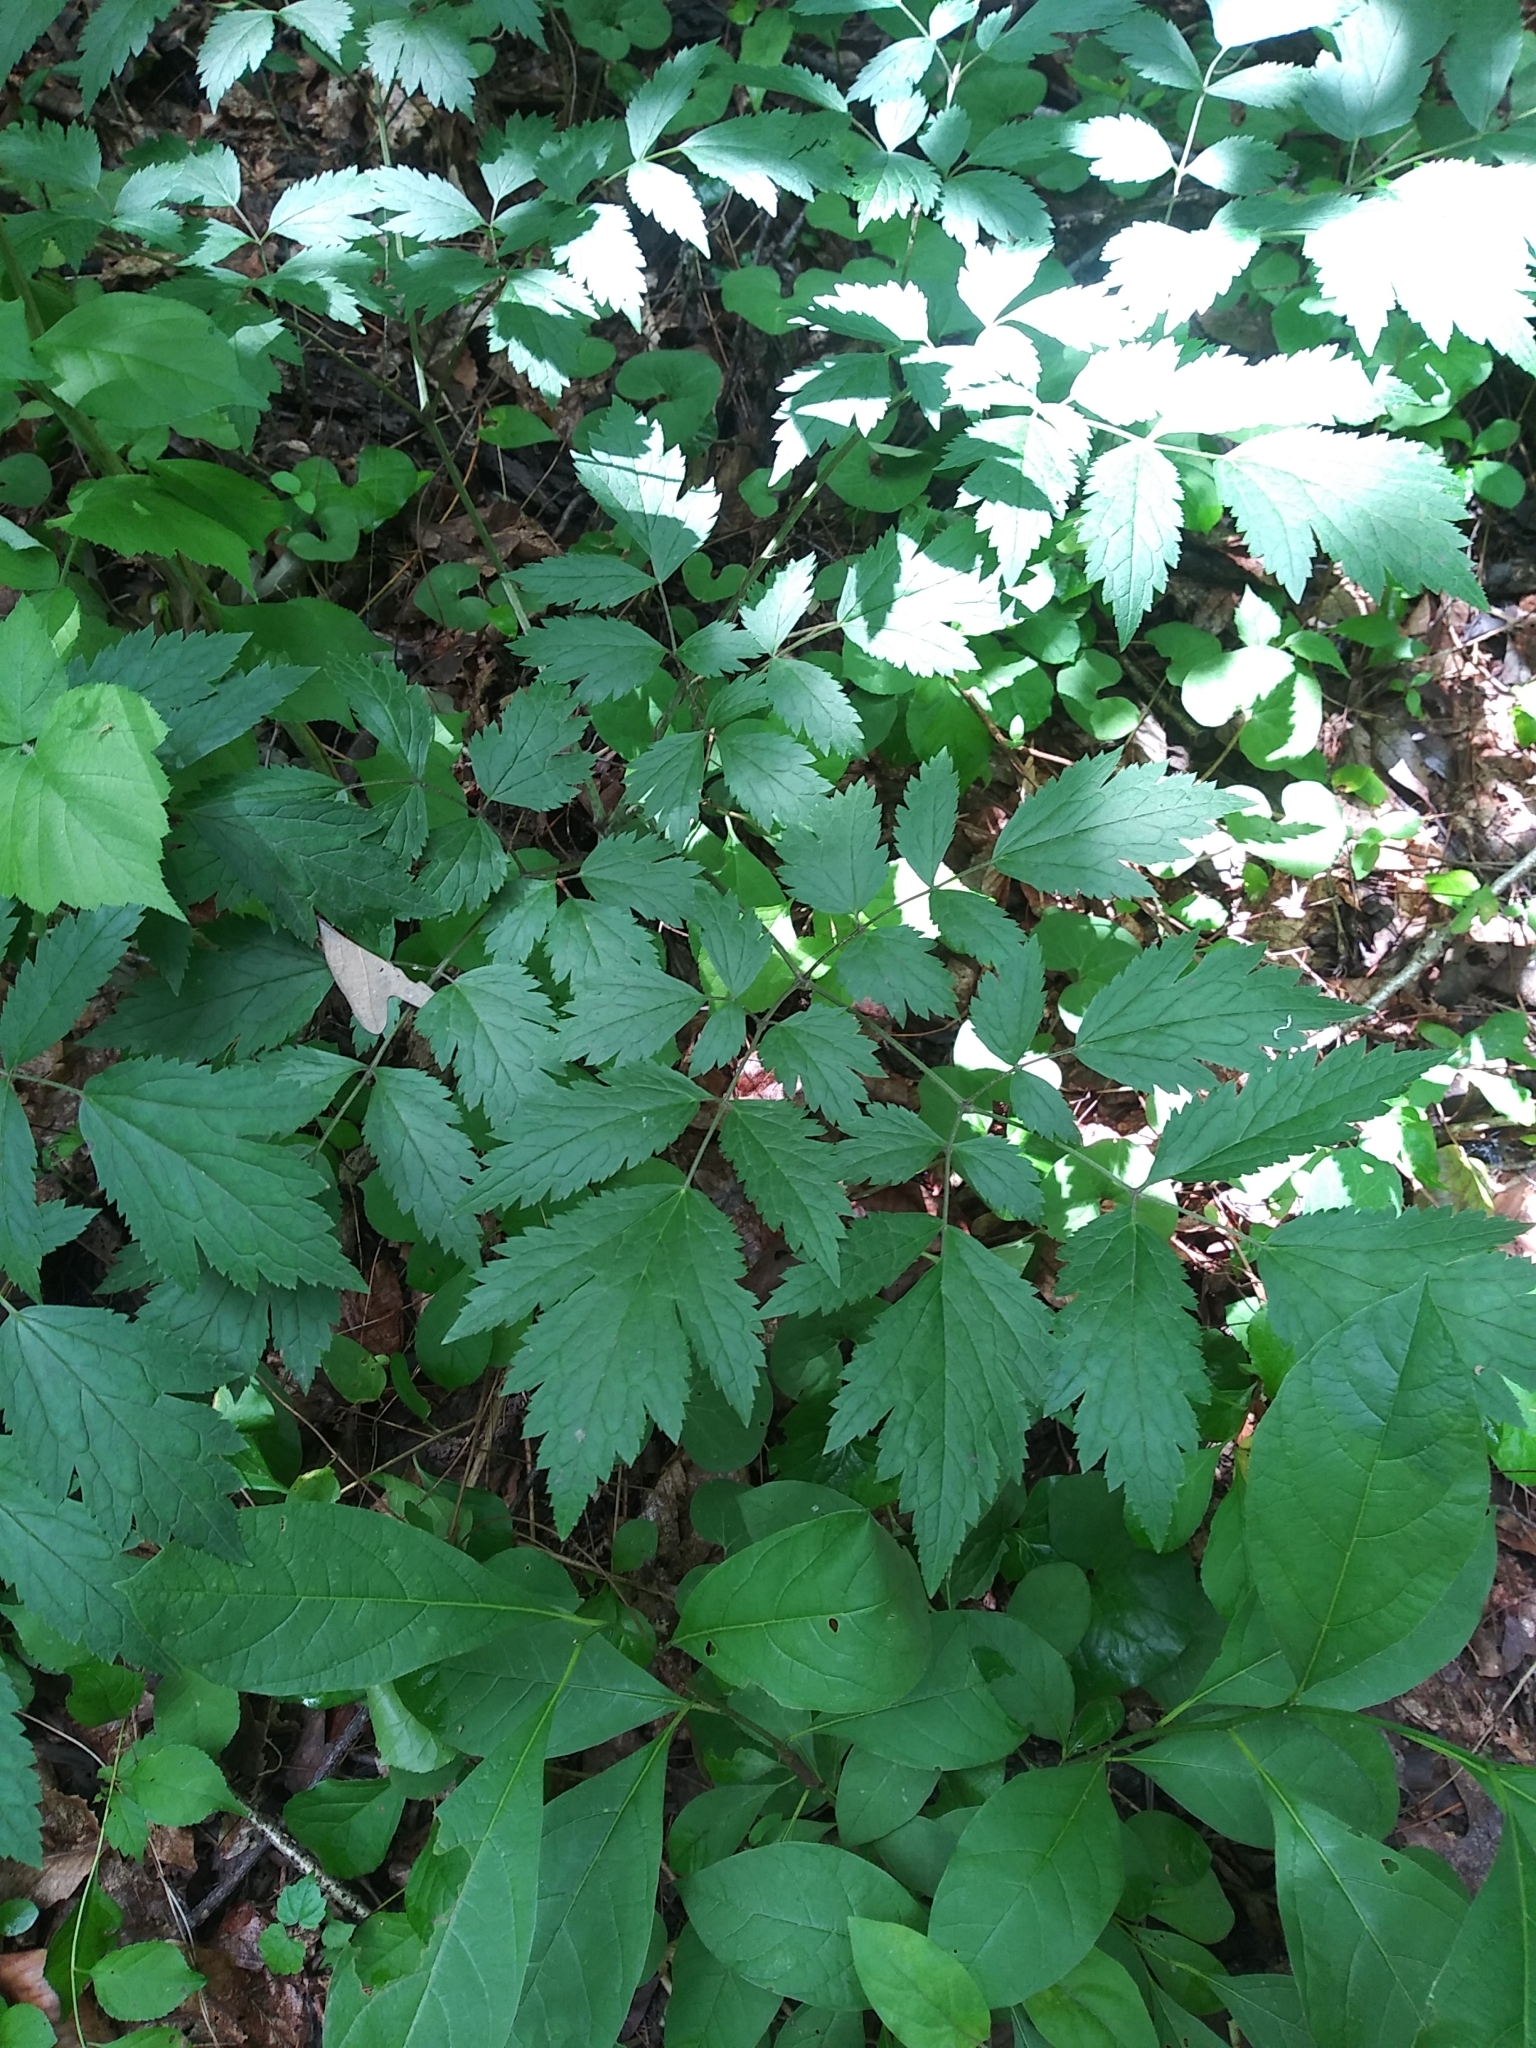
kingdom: Plantae
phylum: Tracheophyta
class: Magnoliopsida
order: Ranunculales
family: Ranunculaceae
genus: Actaea
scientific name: Actaea racemosa
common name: Black cohosh
